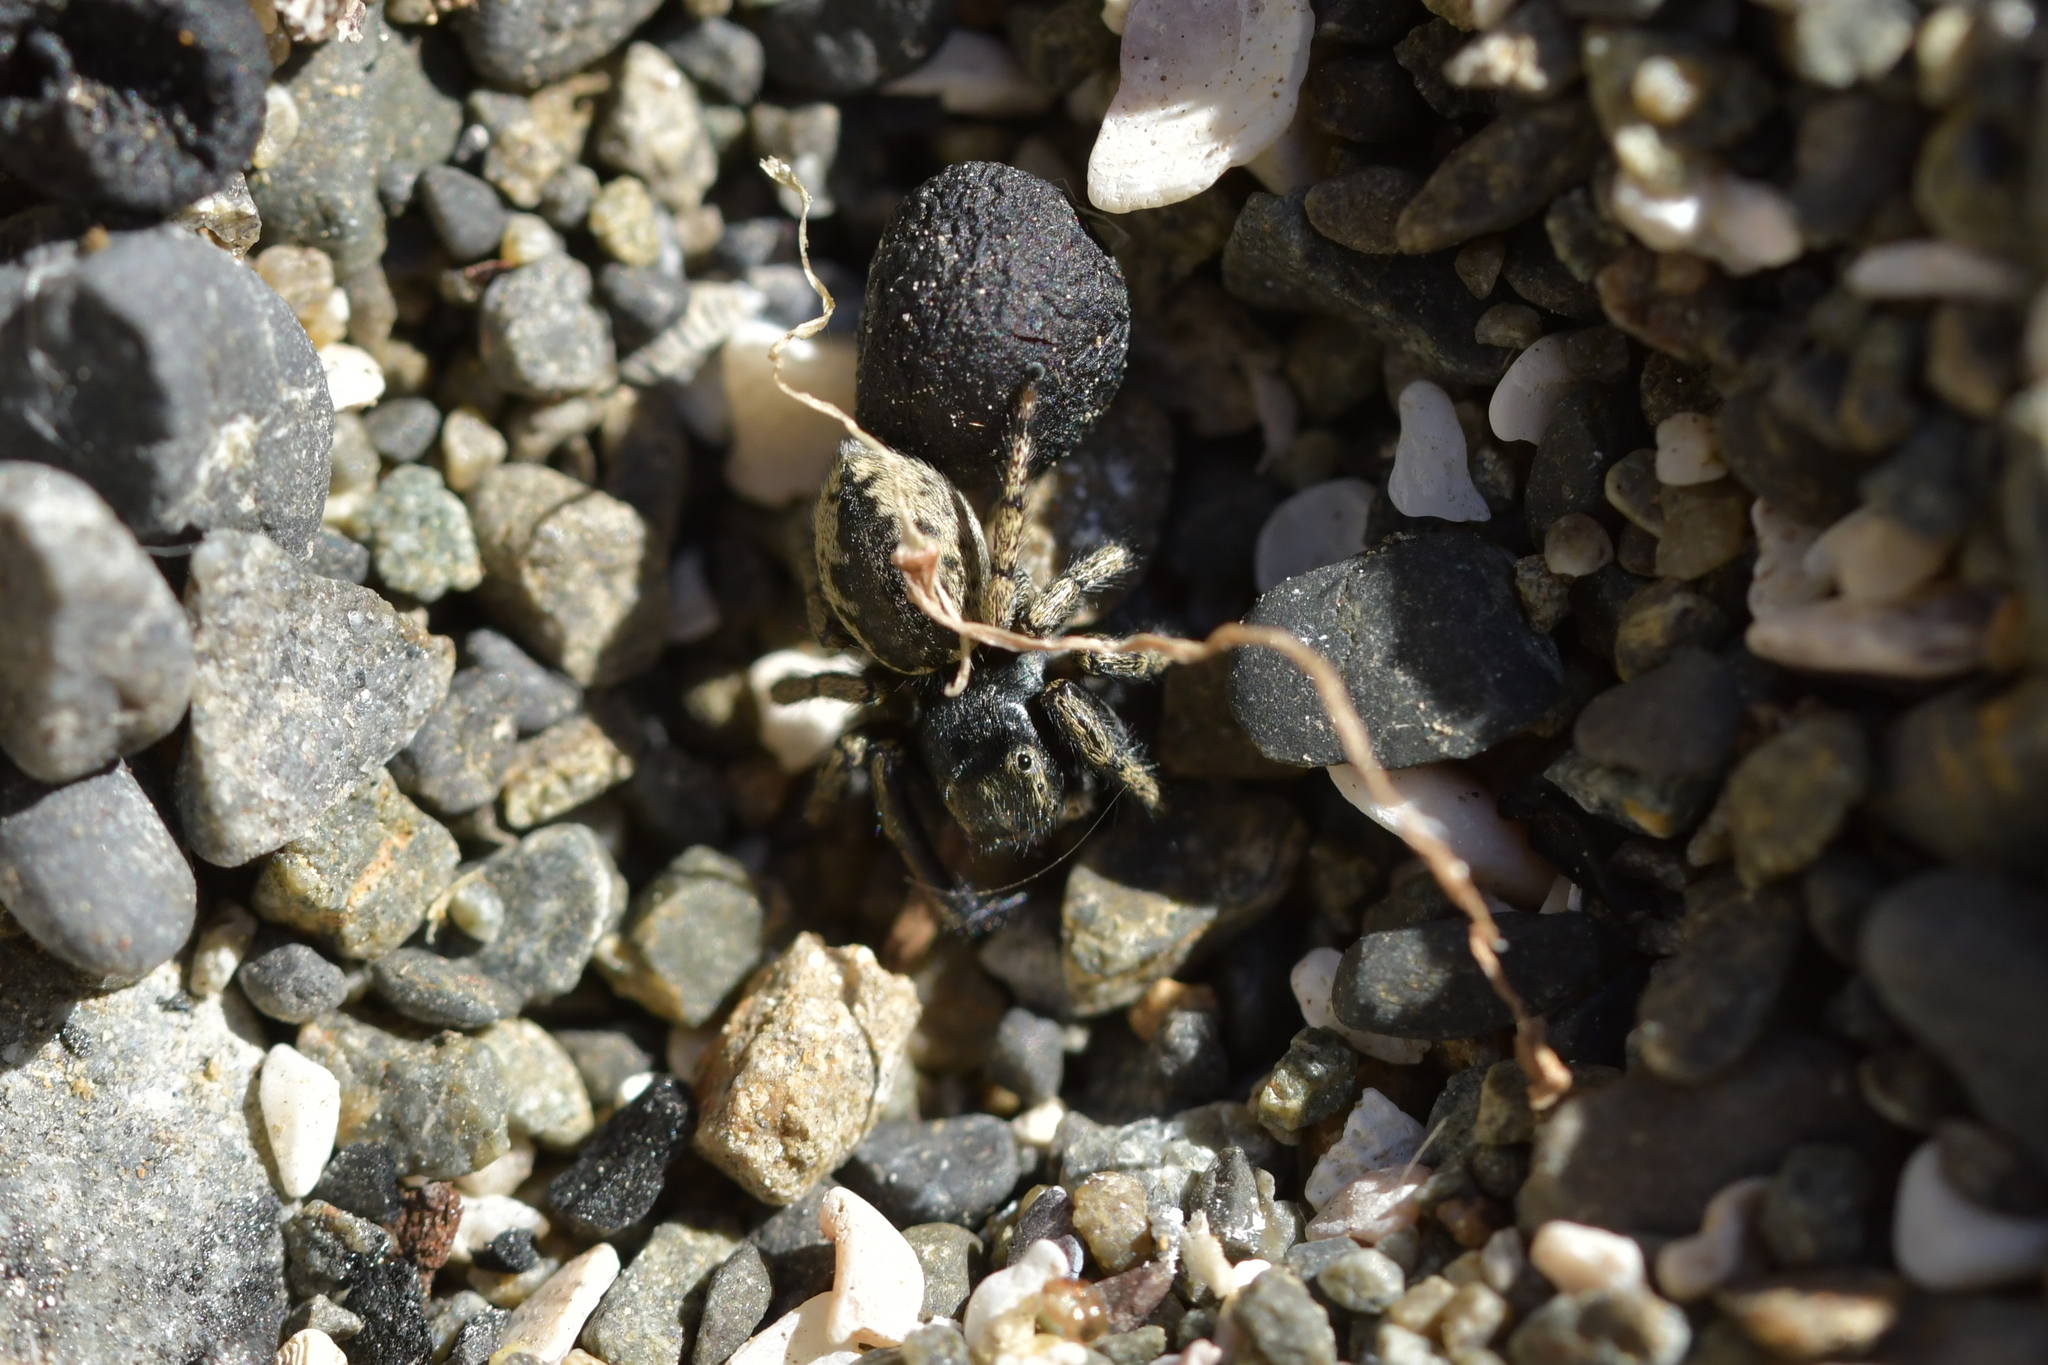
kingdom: Animalia
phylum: Arthropoda
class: Arachnida
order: Araneae
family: Salticidae
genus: Marpissa
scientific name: Marpissa marina
